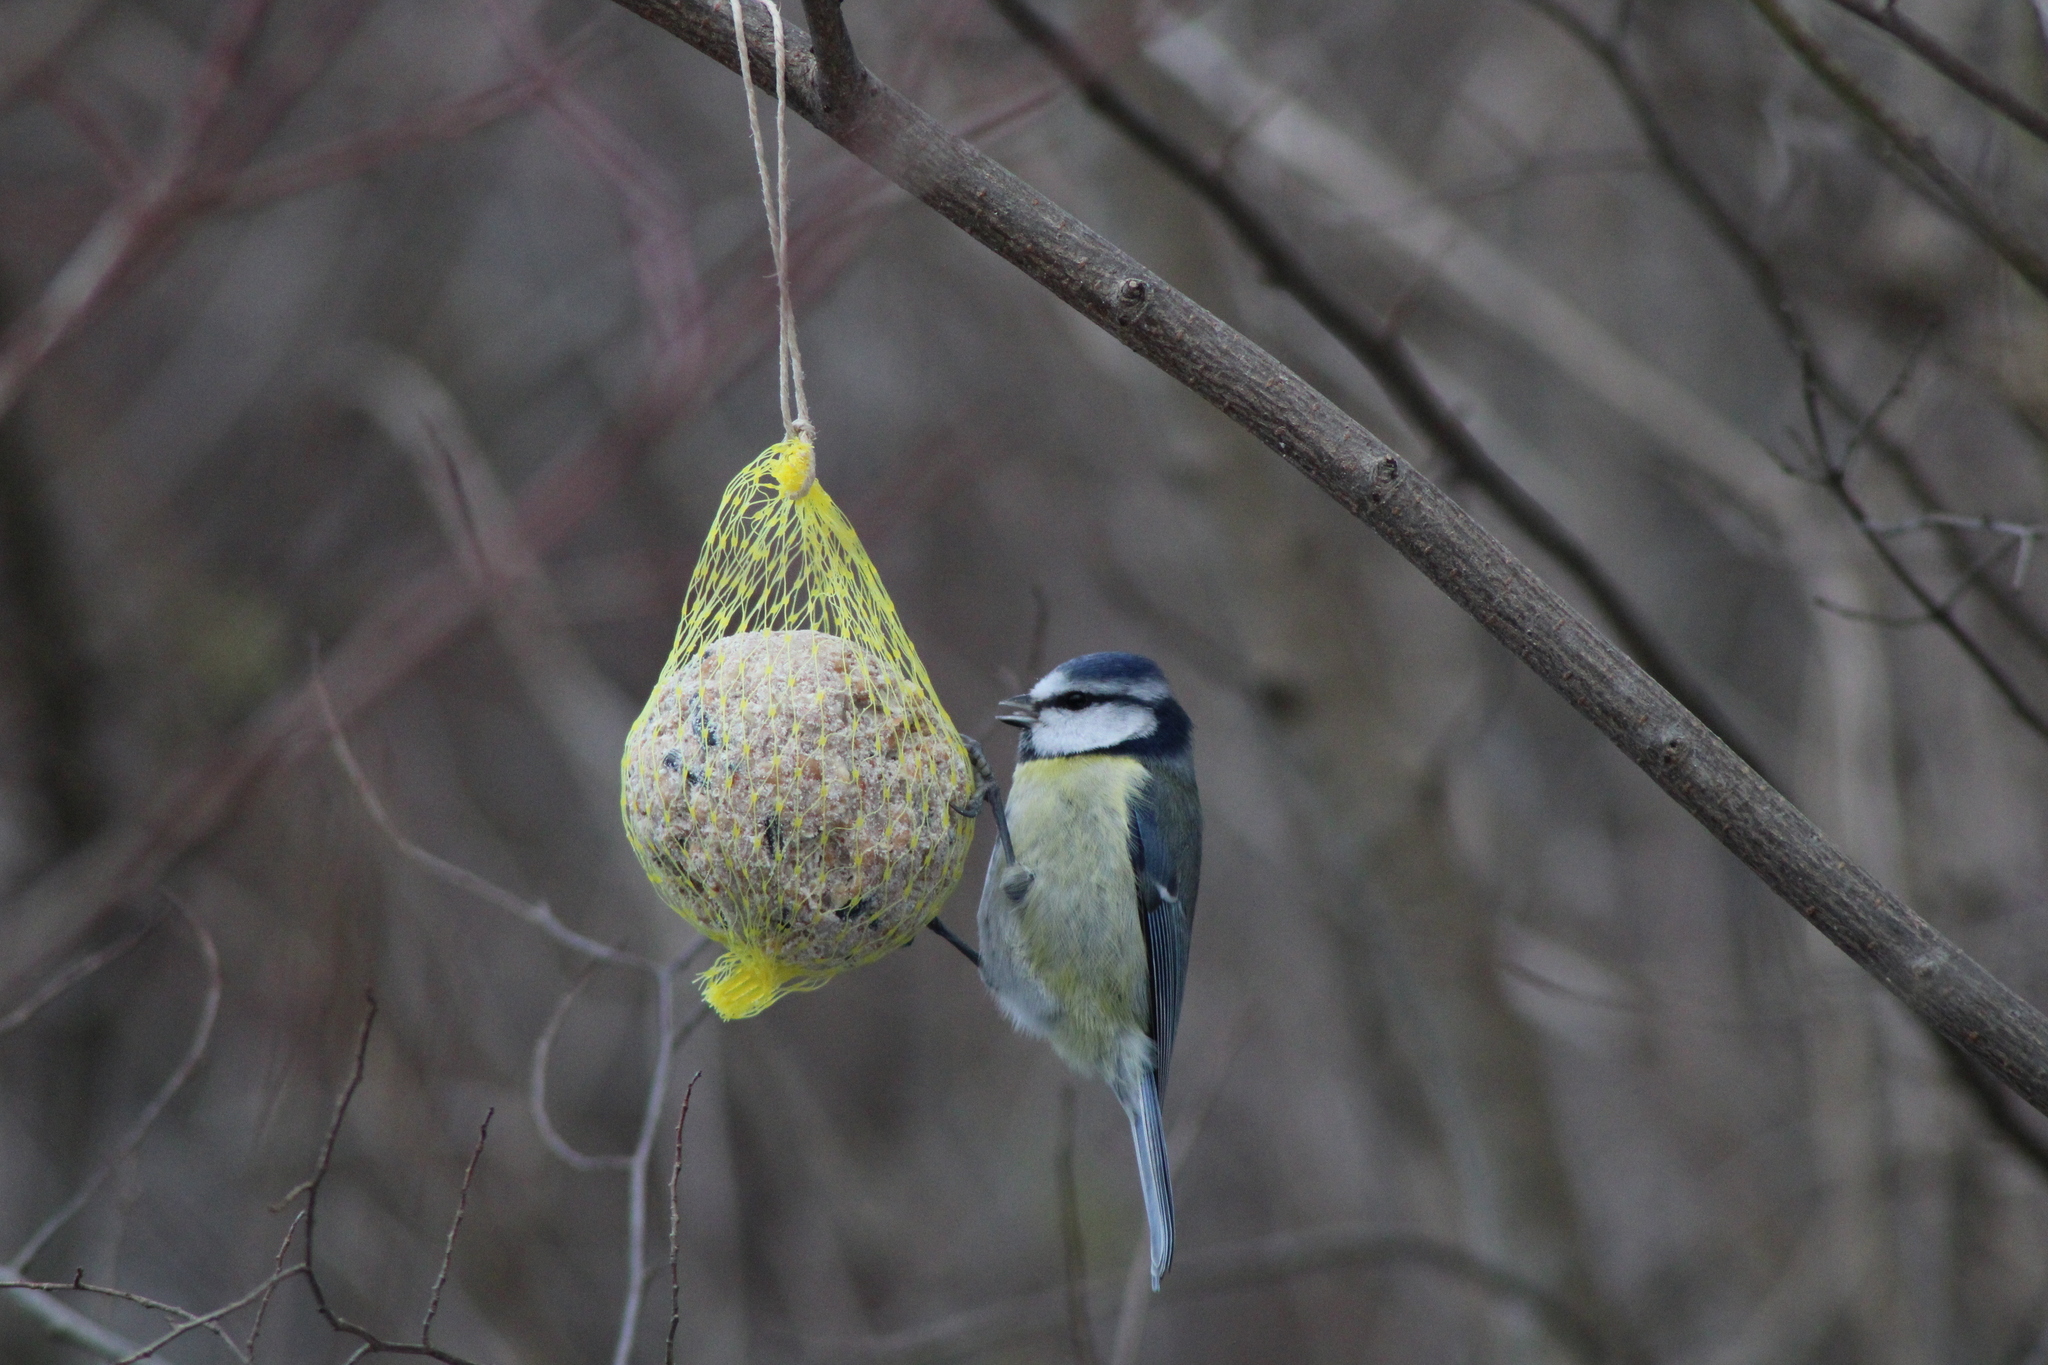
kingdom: Animalia
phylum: Chordata
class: Aves
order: Passeriformes
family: Paridae
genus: Cyanistes
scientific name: Cyanistes caeruleus
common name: Eurasian blue tit
